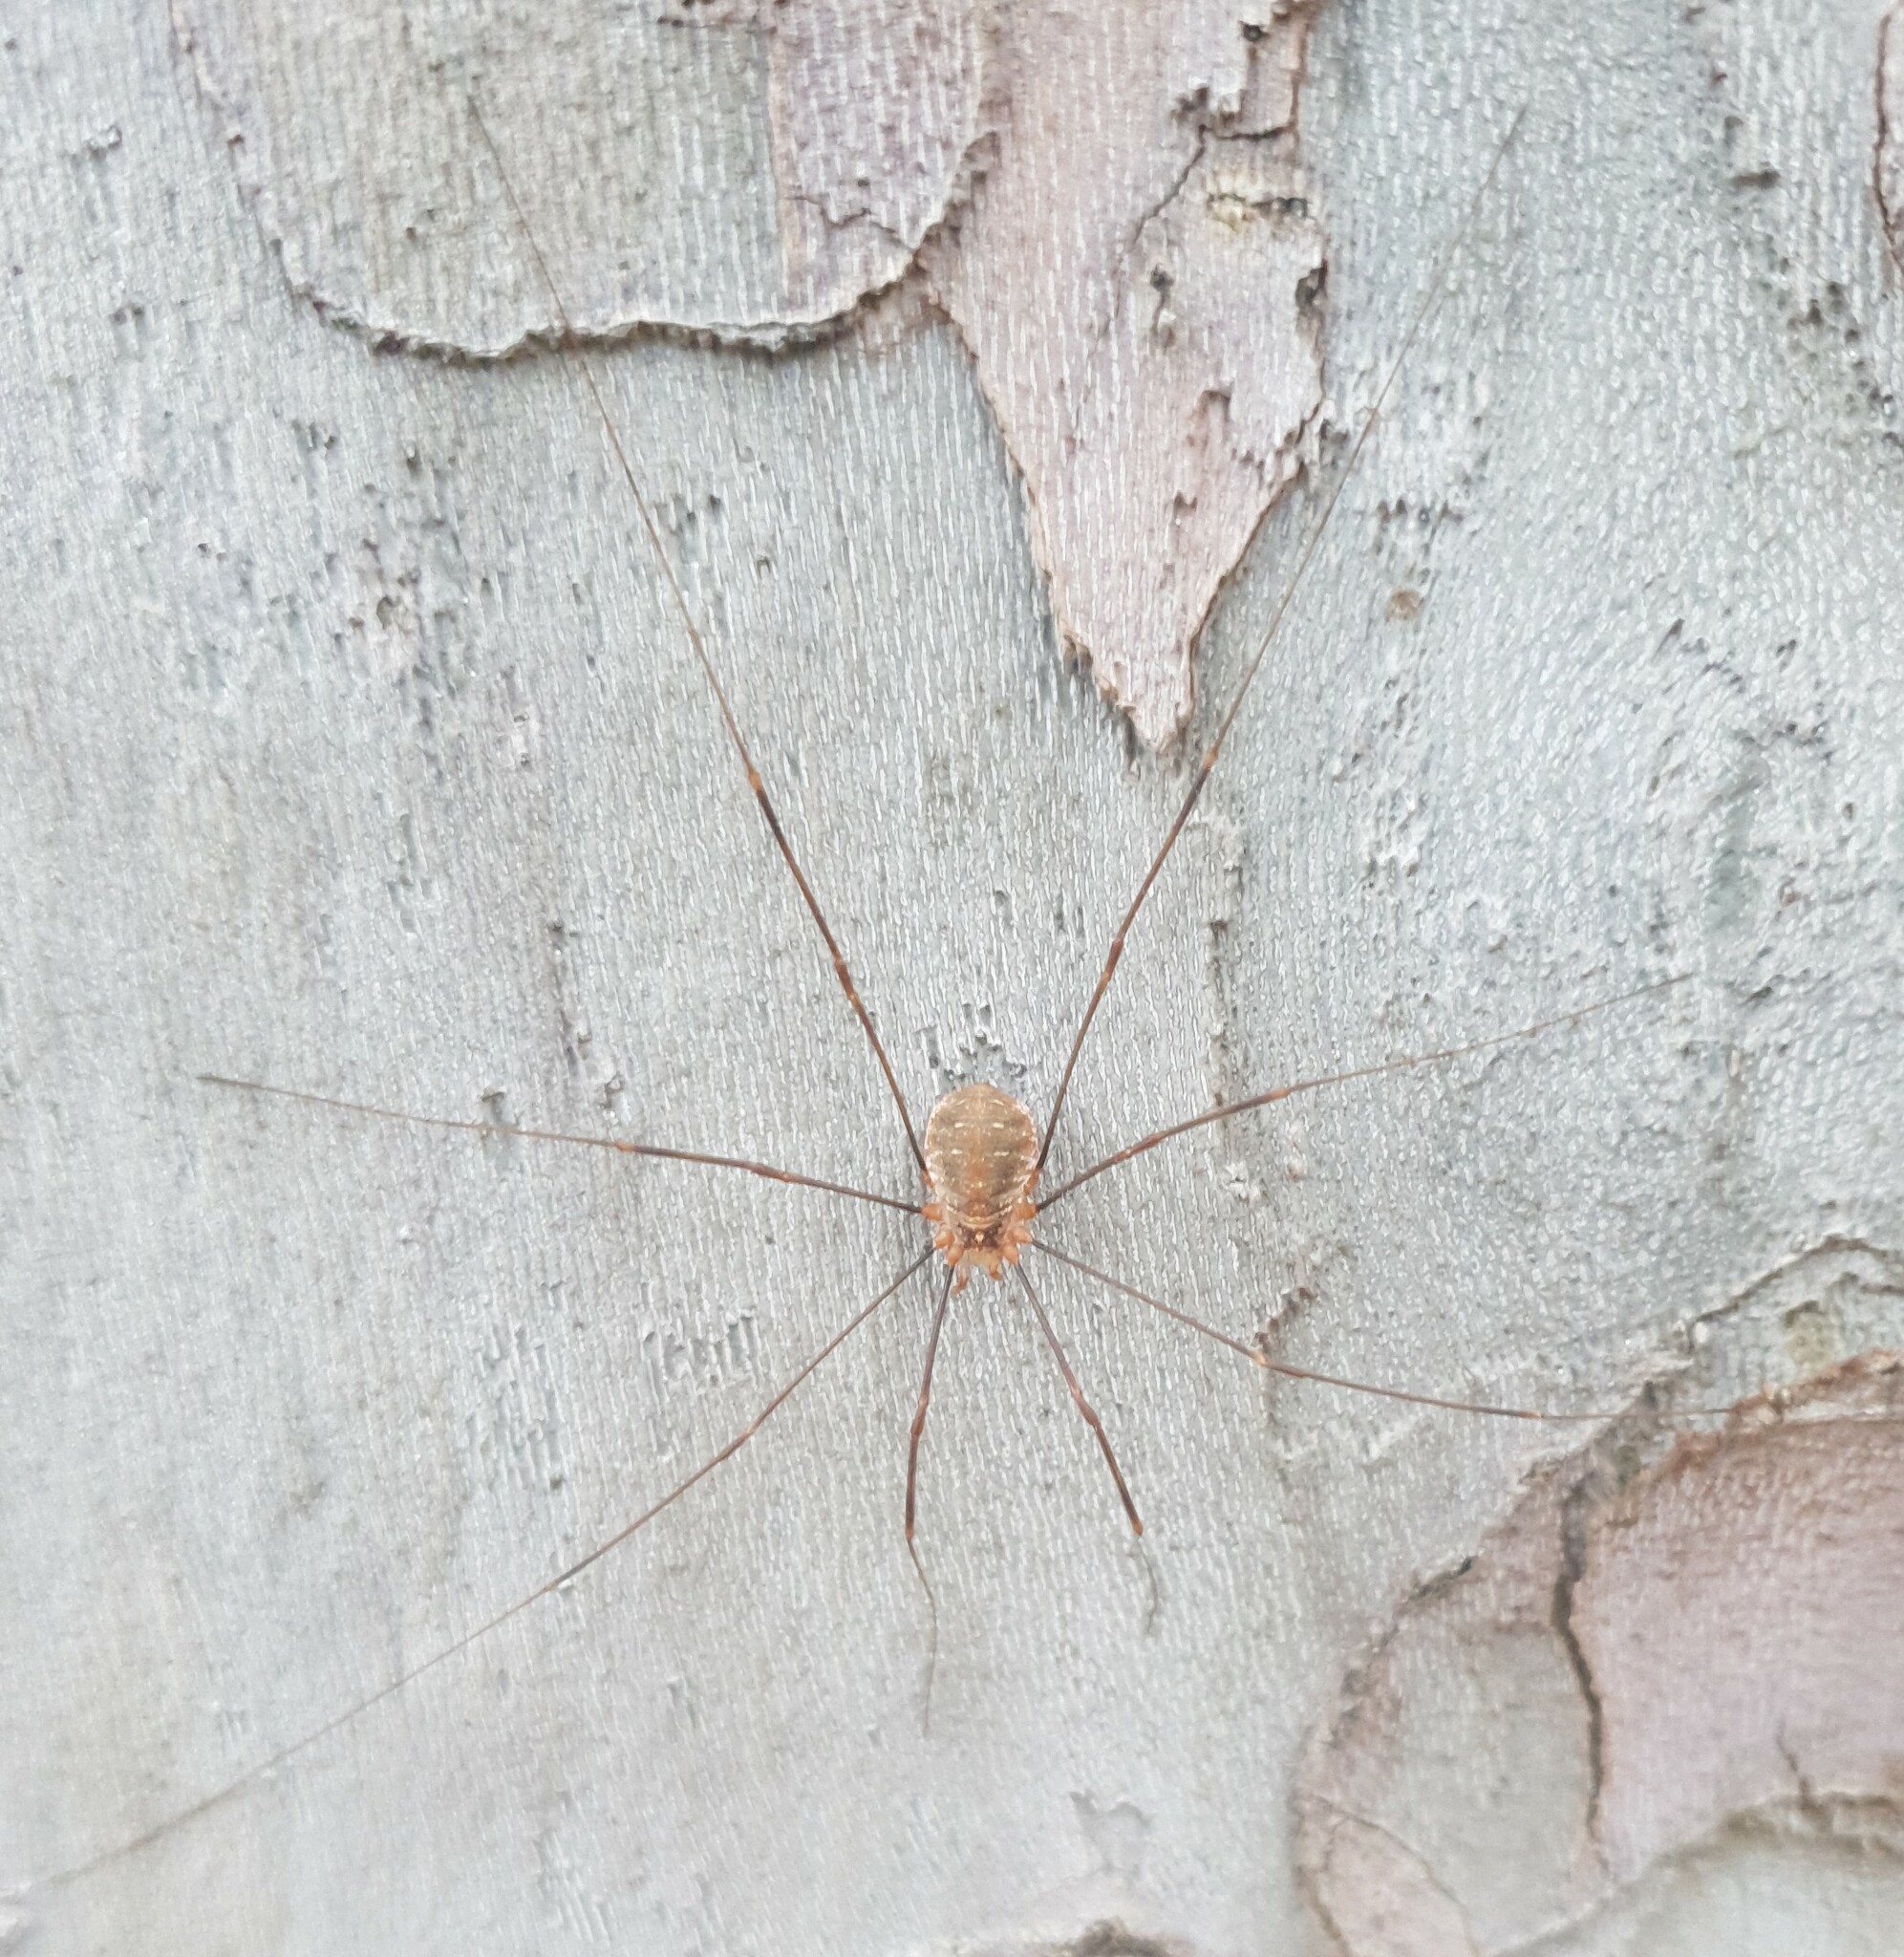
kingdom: Animalia
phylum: Arthropoda
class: Arachnida
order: Opiliones
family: Phalangiidae
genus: Opilio
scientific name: Opilio canestrinii
